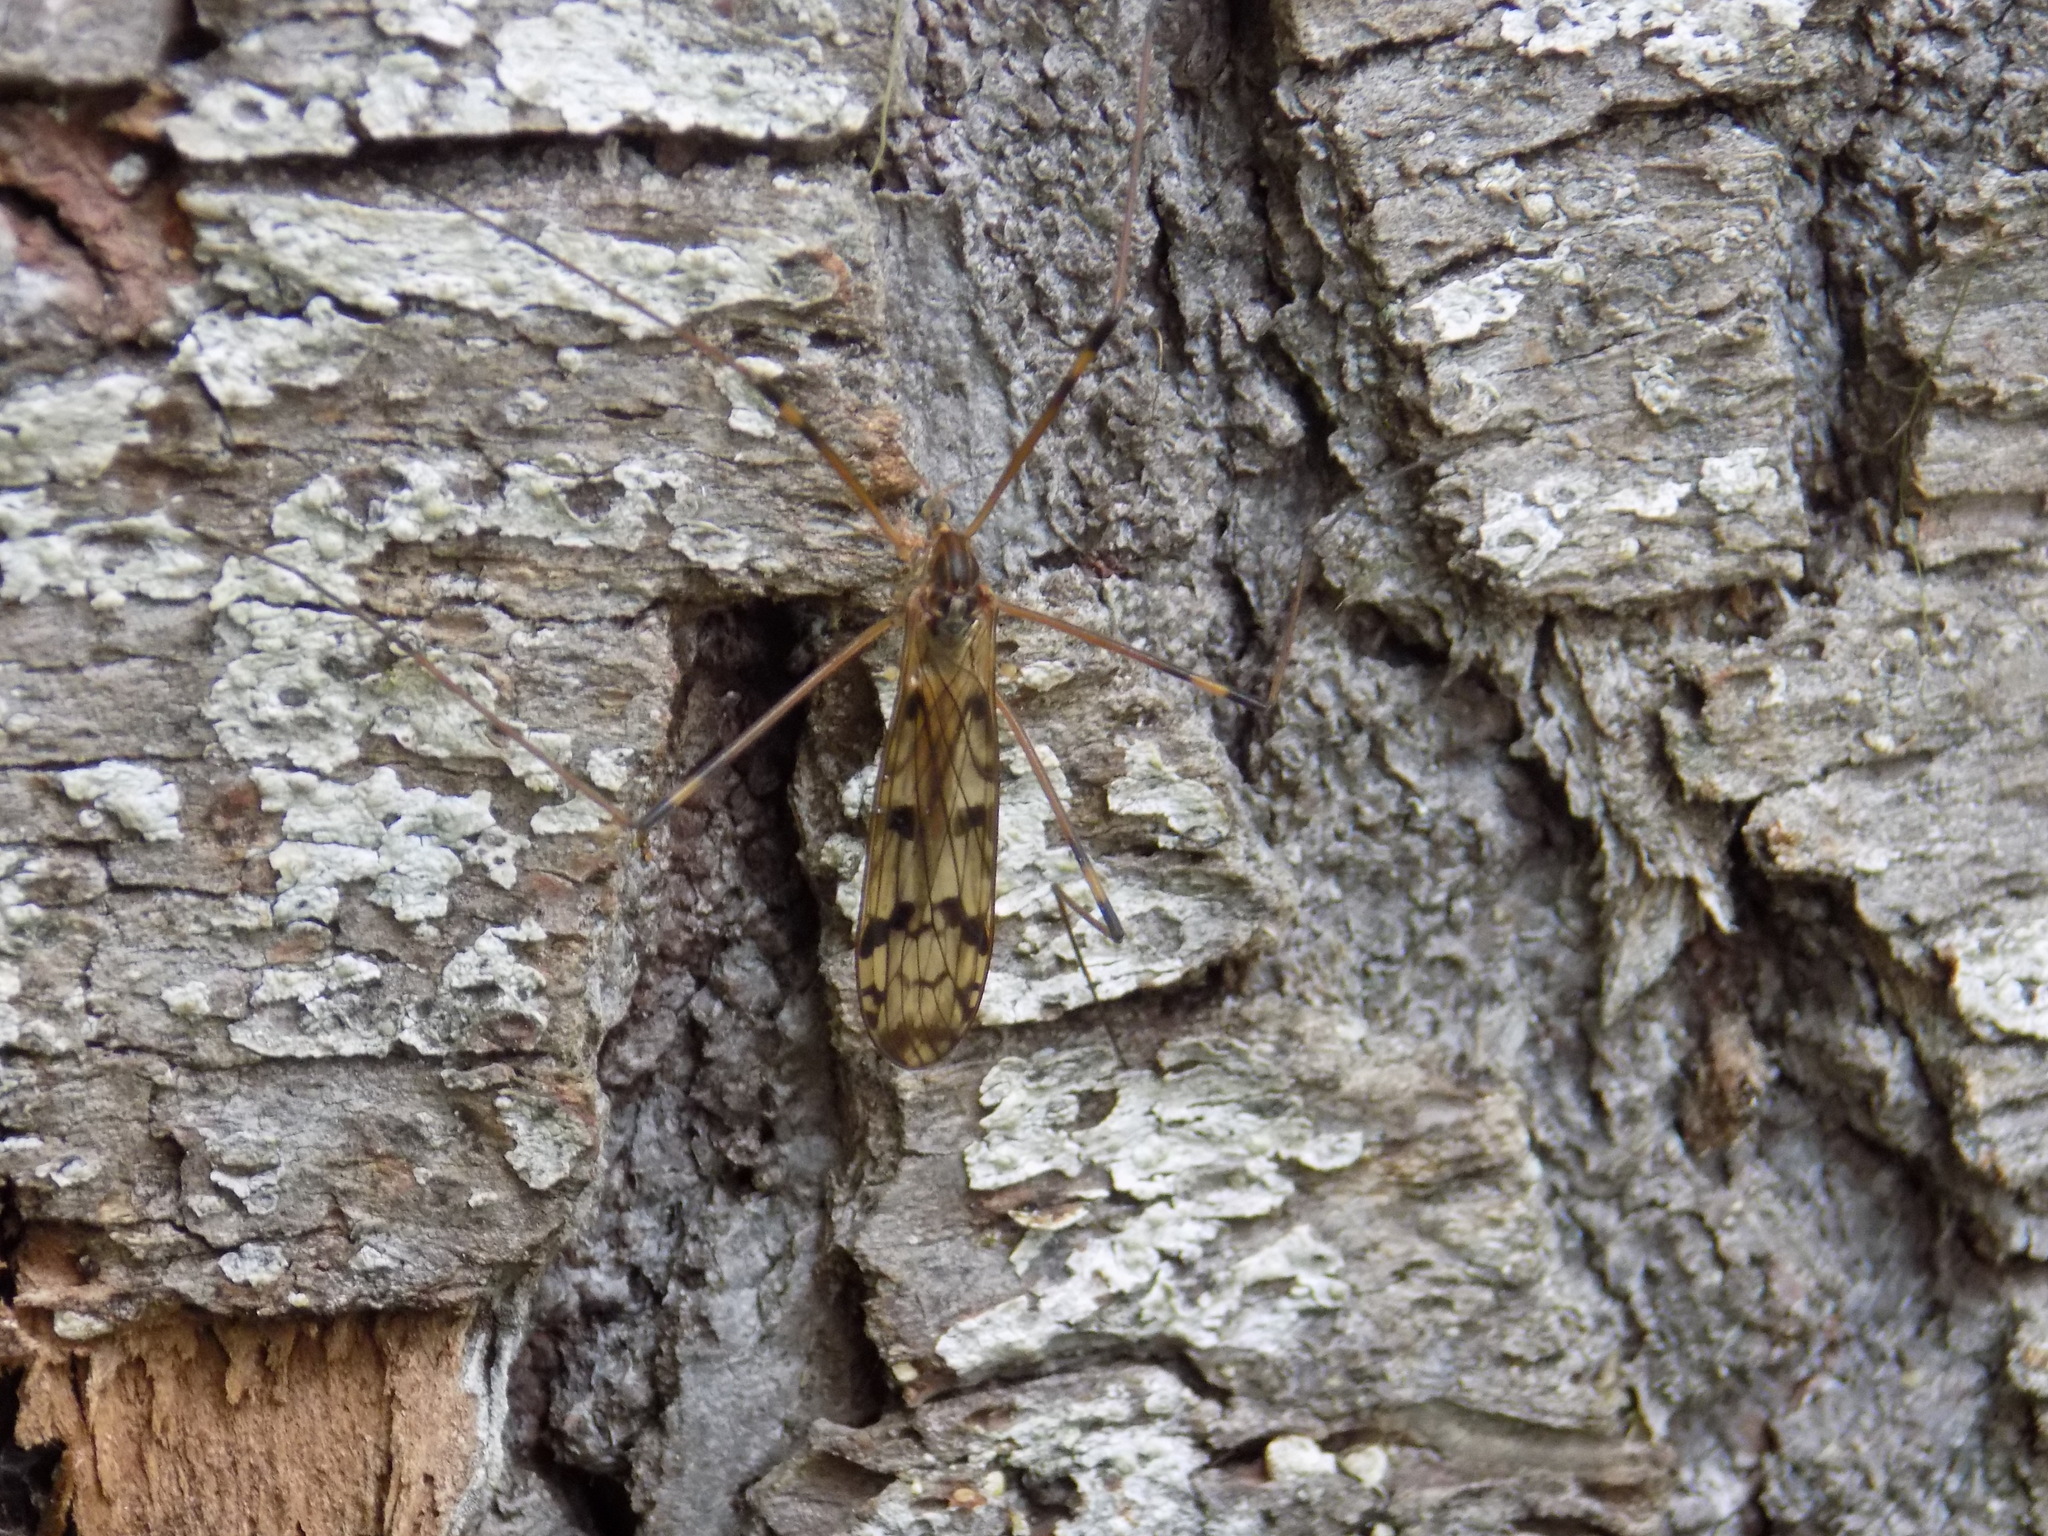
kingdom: Animalia
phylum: Arthropoda
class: Insecta
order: Diptera
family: Limoniidae
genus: Metalimnobia
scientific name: Metalimnobia quadrimaculata
